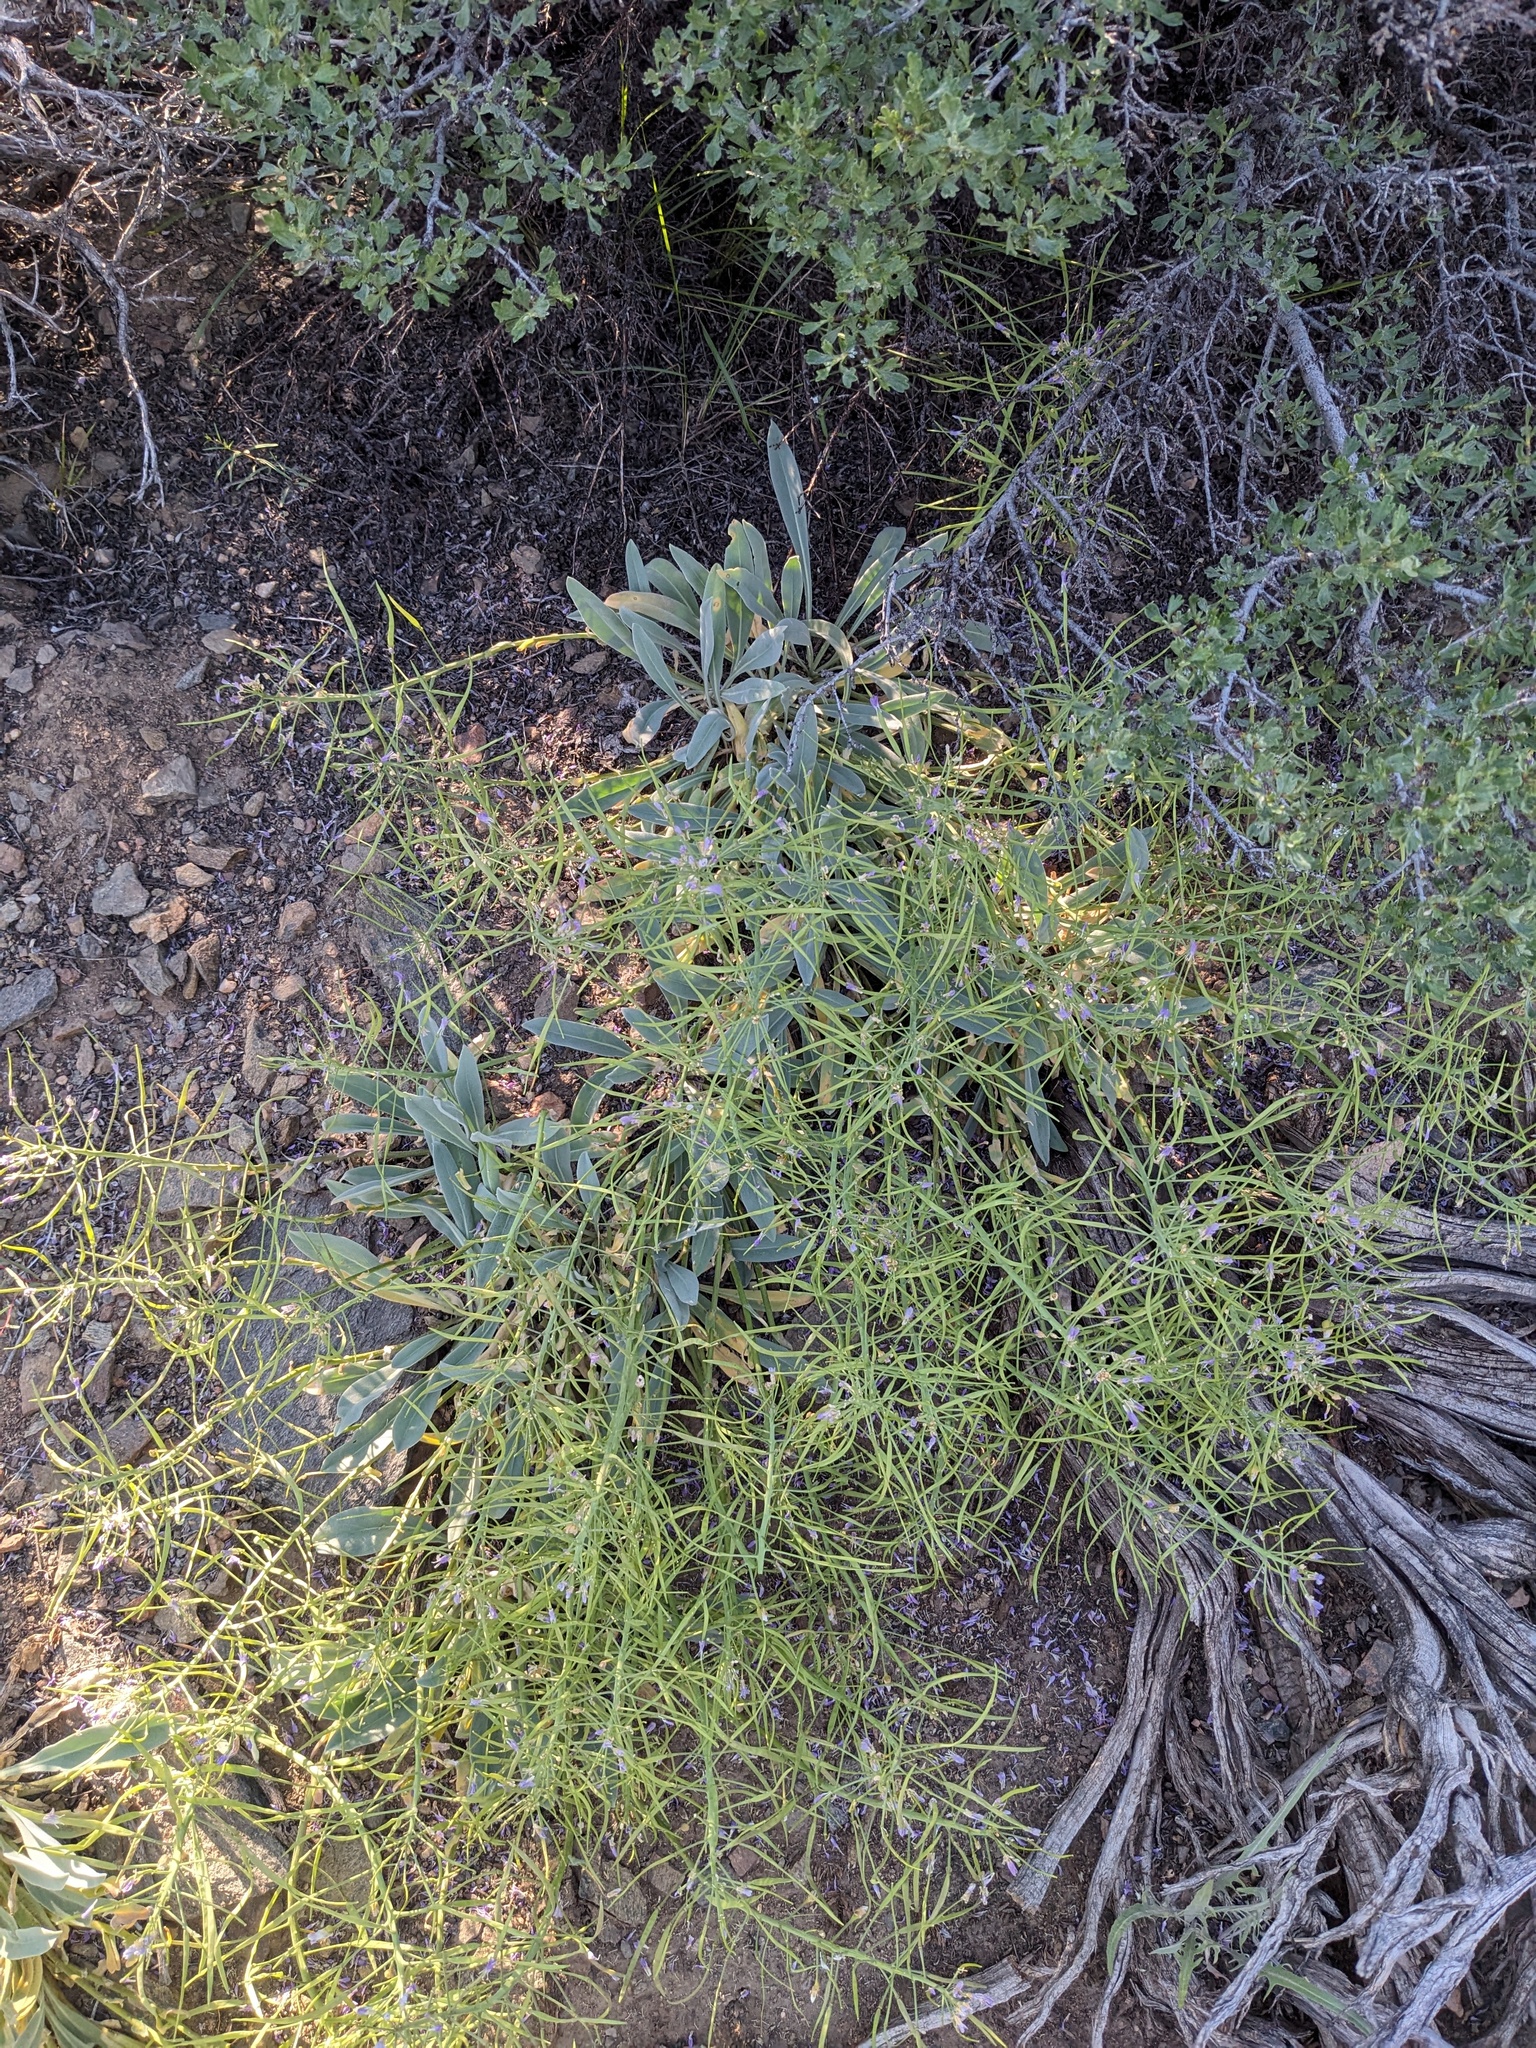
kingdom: Plantae
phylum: Tracheophyta
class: Magnoliopsida
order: Brassicales
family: Brassicaceae
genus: Phoenicaulis
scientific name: Phoenicaulis cheiranthoides
